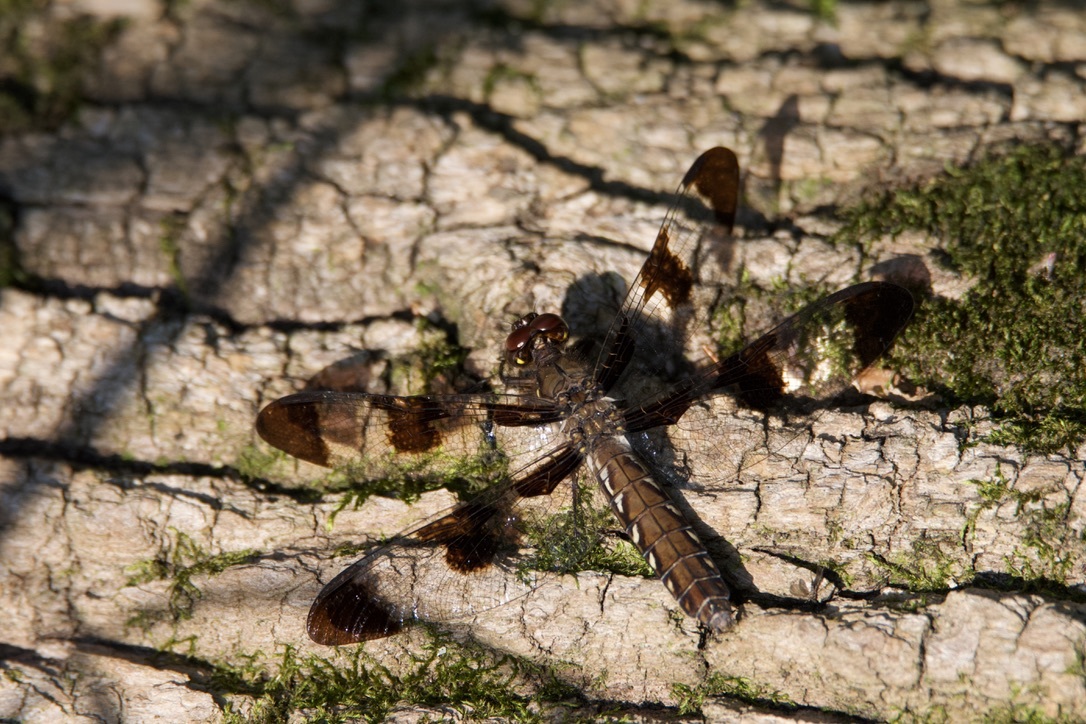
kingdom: Animalia
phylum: Arthropoda
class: Insecta
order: Odonata
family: Libellulidae
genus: Plathemis
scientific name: Plathemis lydia
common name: Common whitetail
